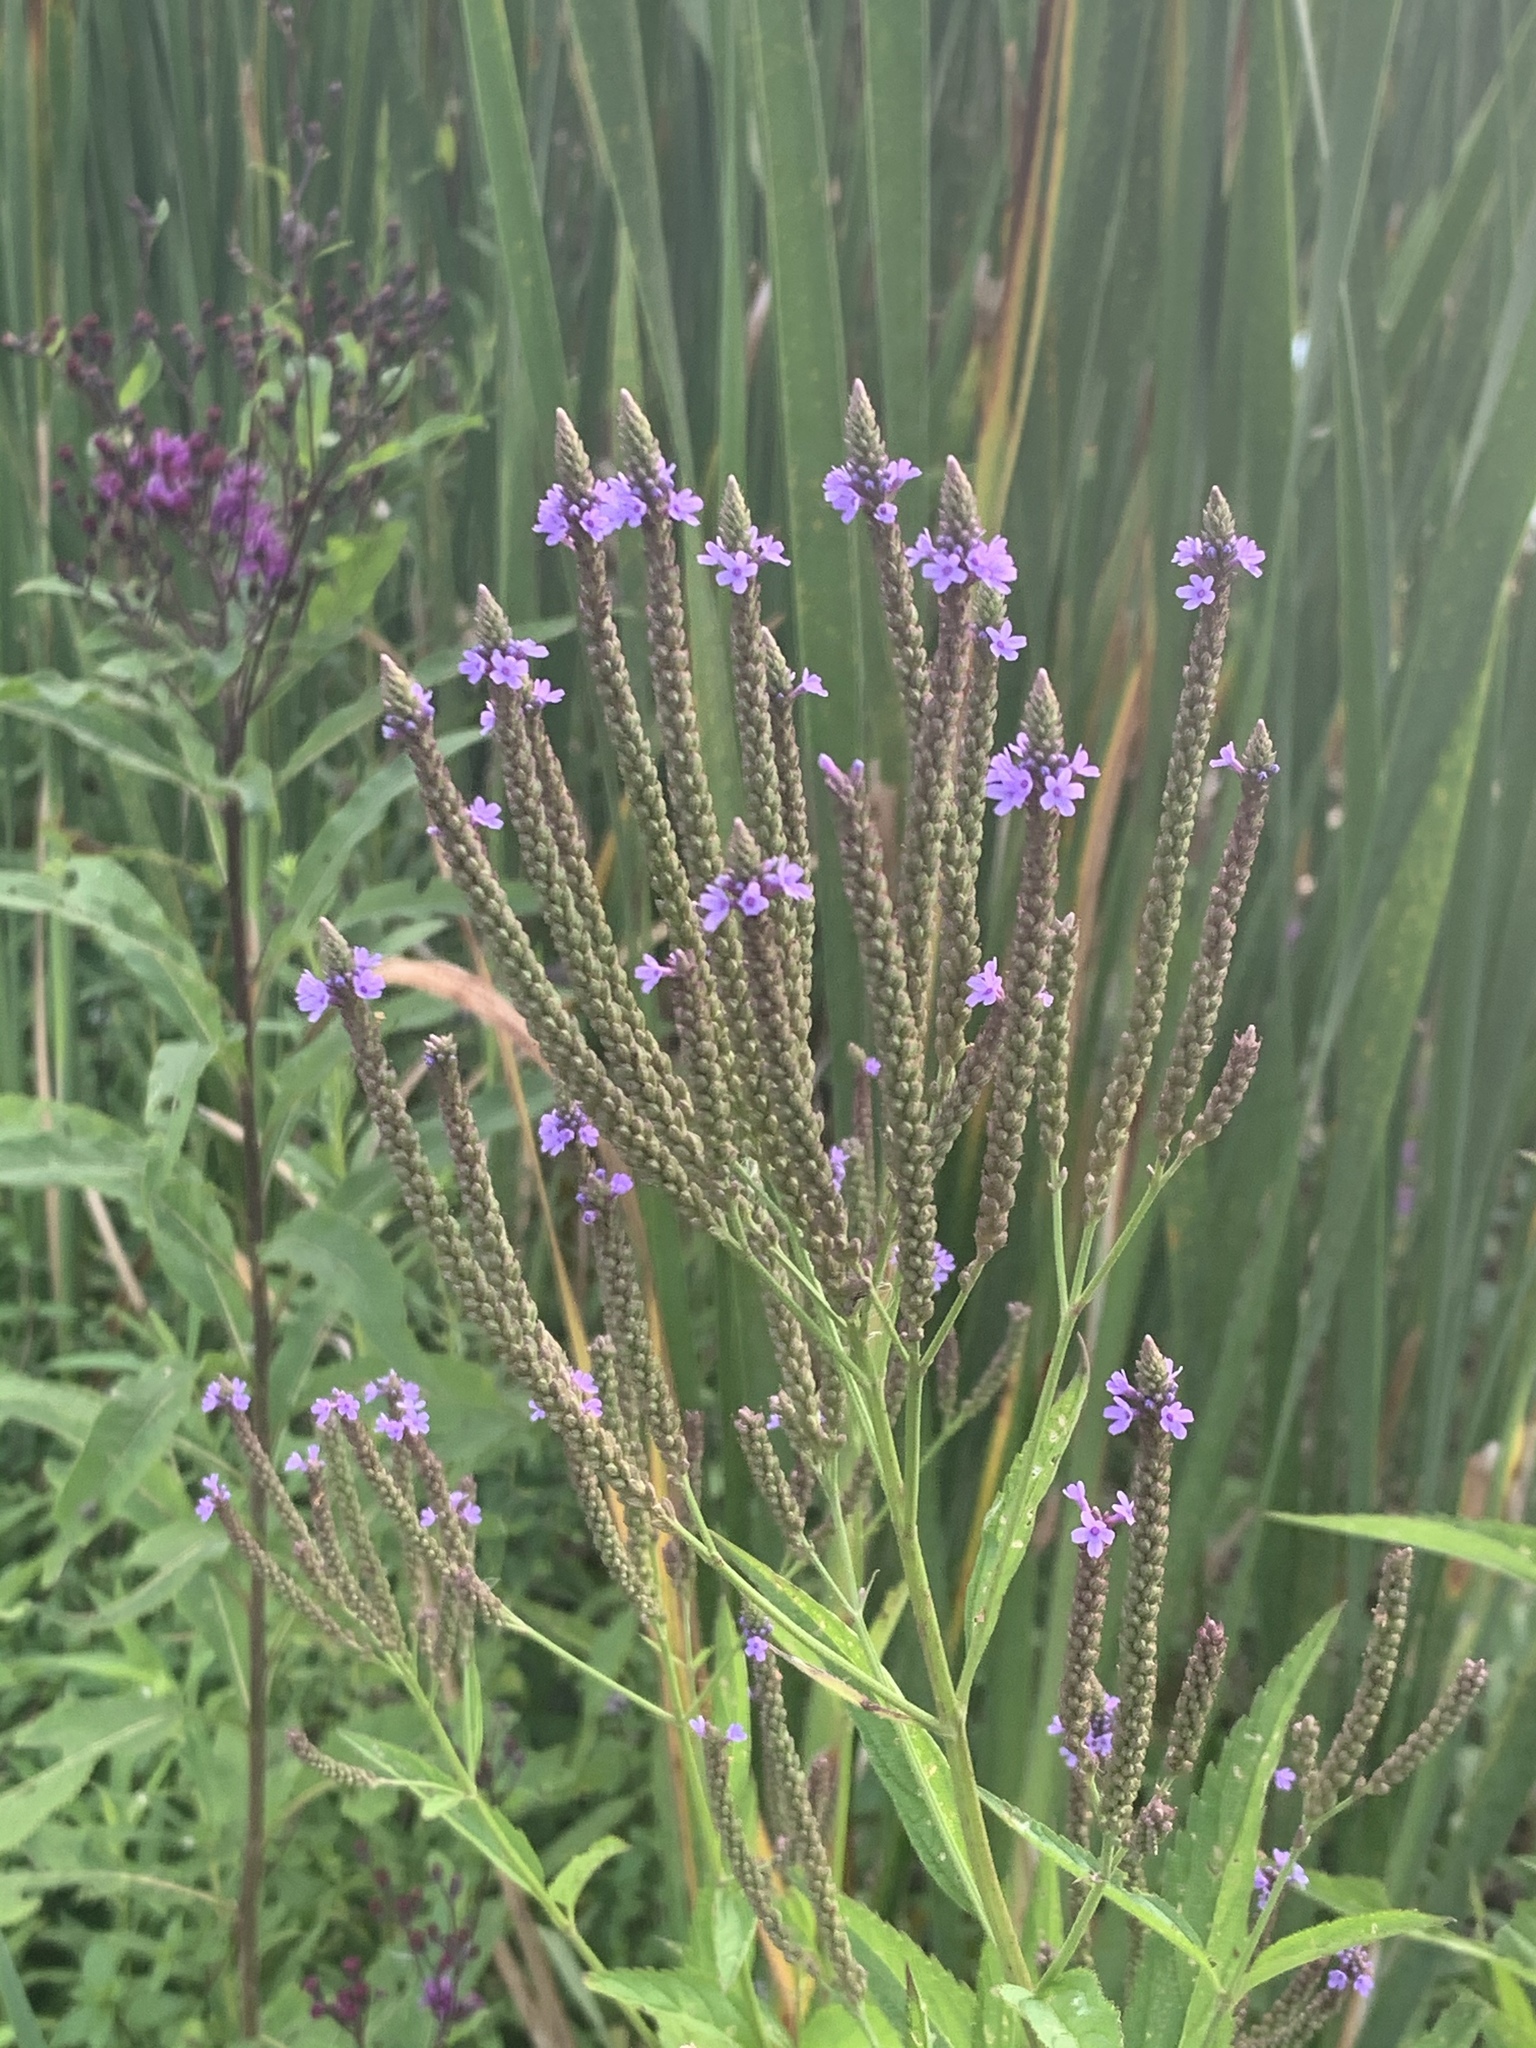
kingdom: Plantae
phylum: Tracheophyta
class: Magnoliopsida
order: Lamiales
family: Verbenaceae
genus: Verbena
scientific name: Verbena hastata
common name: American blue vervain
